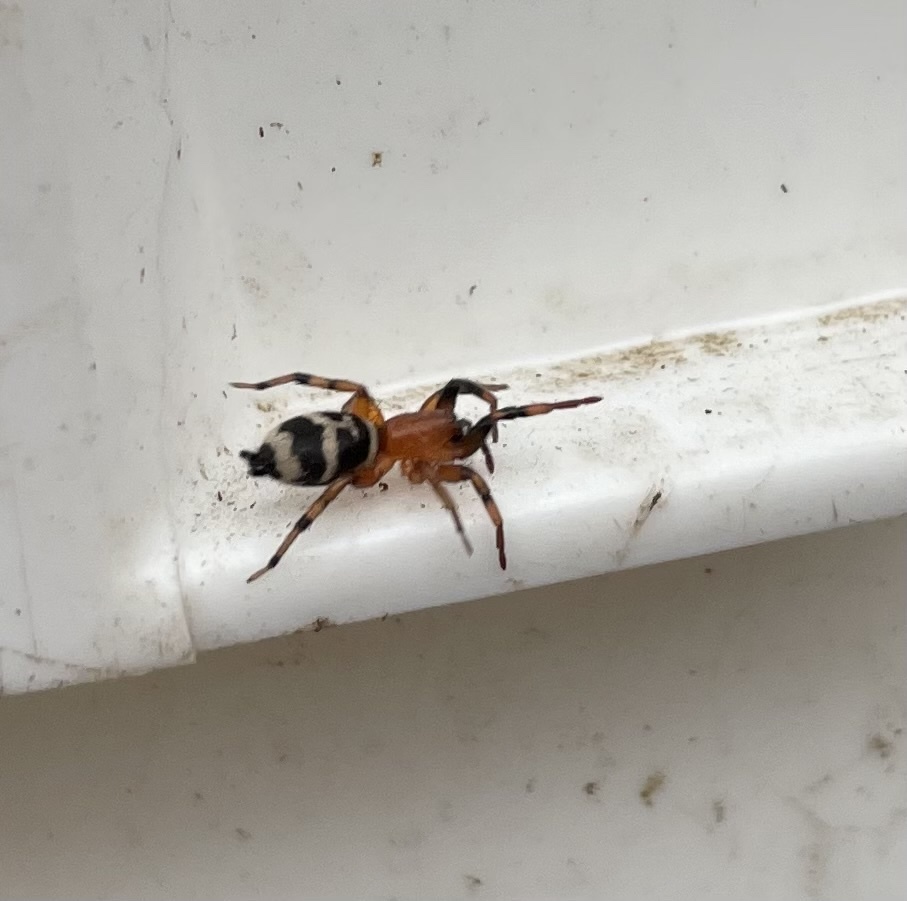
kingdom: Animalia
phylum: Arthropoda
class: Arachnida
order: Araneae
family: Gnaphosidae
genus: Sergiolus
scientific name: Sergiolus capulatus
